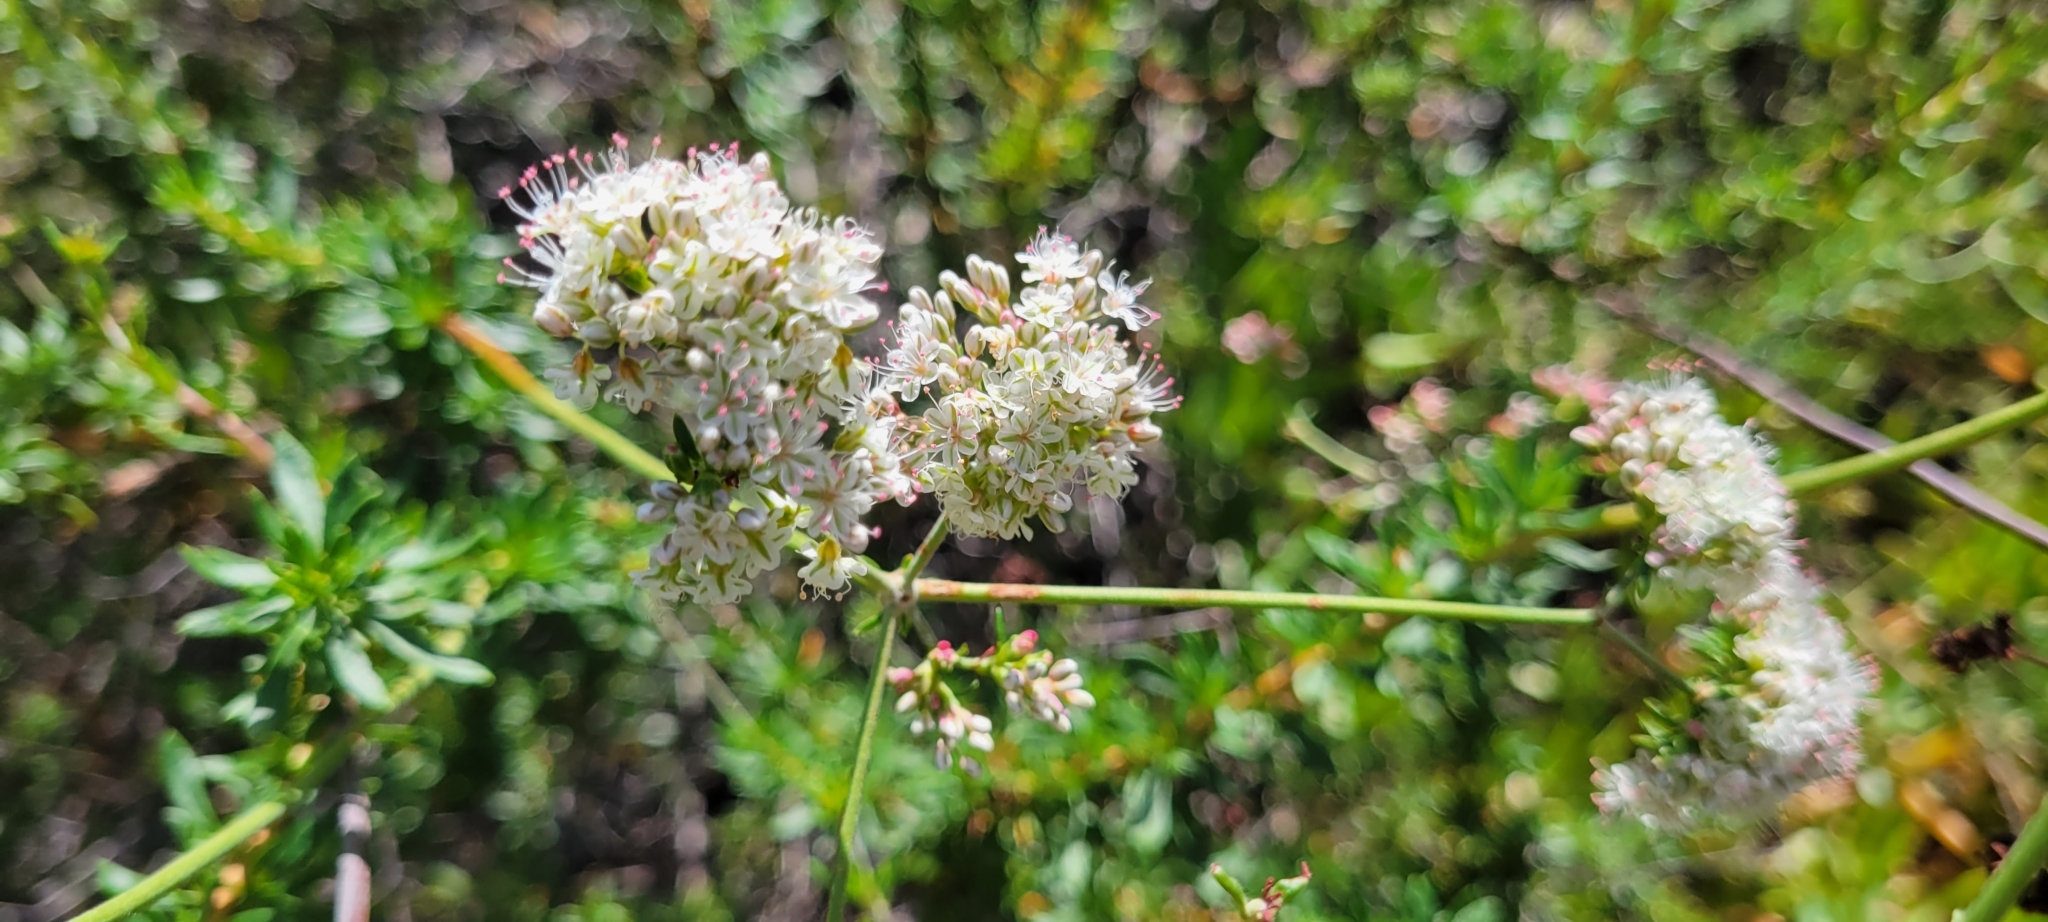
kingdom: Plantae
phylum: Tracheophyta
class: Magnoliopsida
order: Caryophyllales
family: Polygonaceae
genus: Eriogonum
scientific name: Eriogonum fasciculatum
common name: California wild buckwheat
